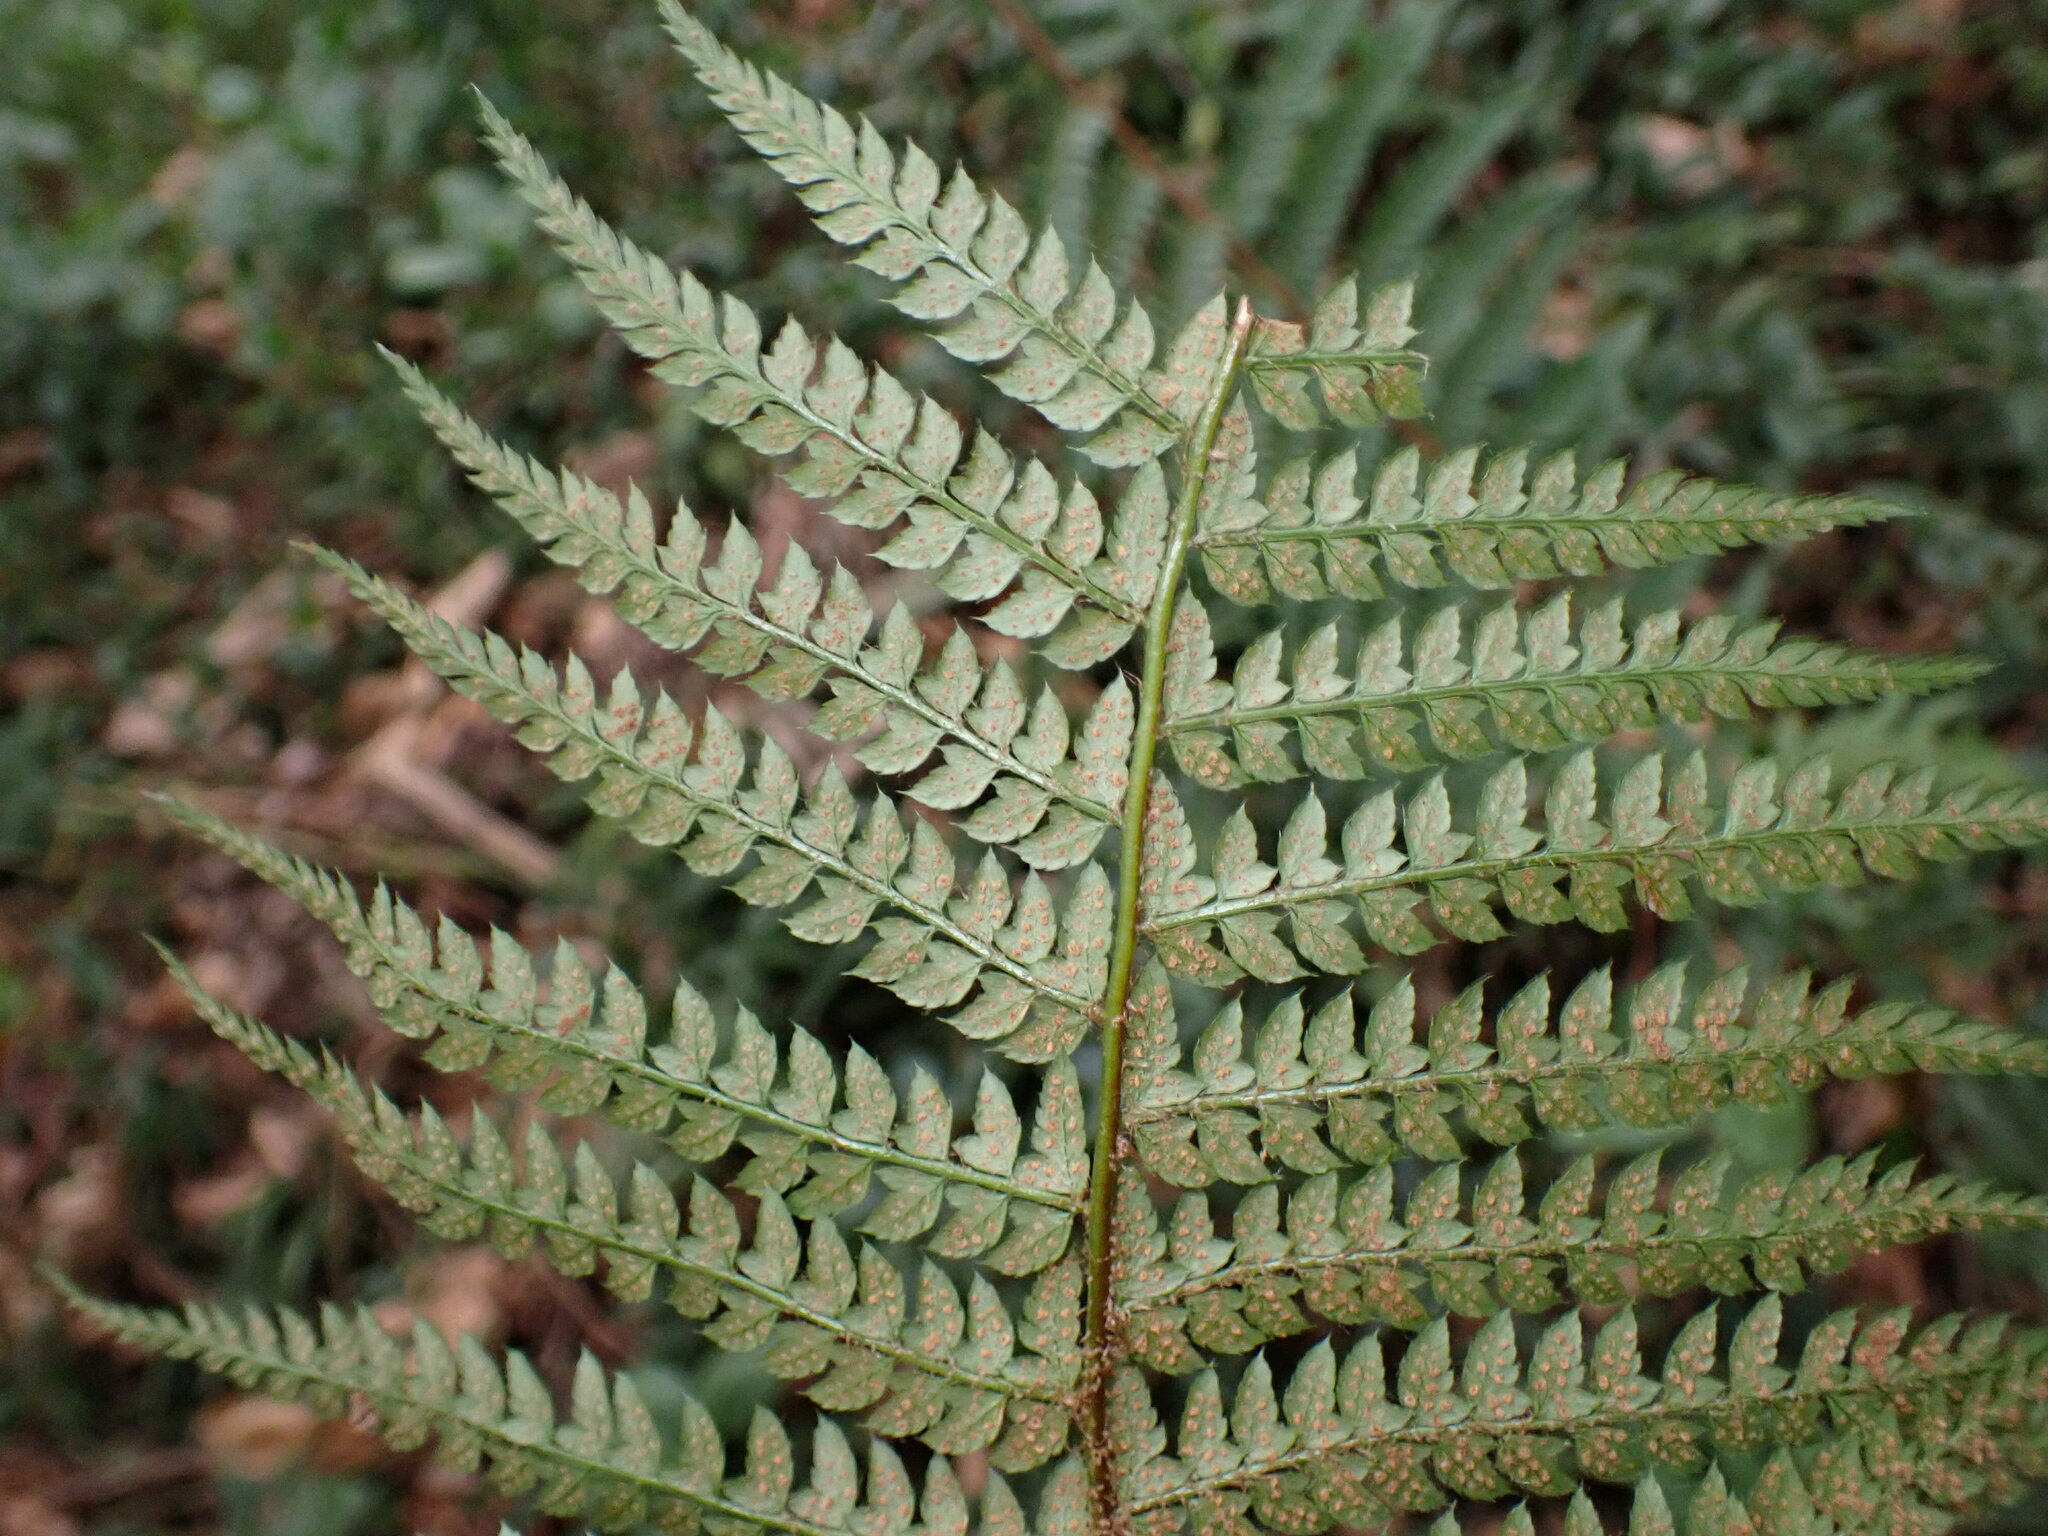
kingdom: Plantae
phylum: Tracheophyta
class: Polypodiopsida
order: Polypodiales
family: Dryopteridaceae
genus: Polystichum
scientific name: Polystichum setiferum
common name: Soft shield-fern
